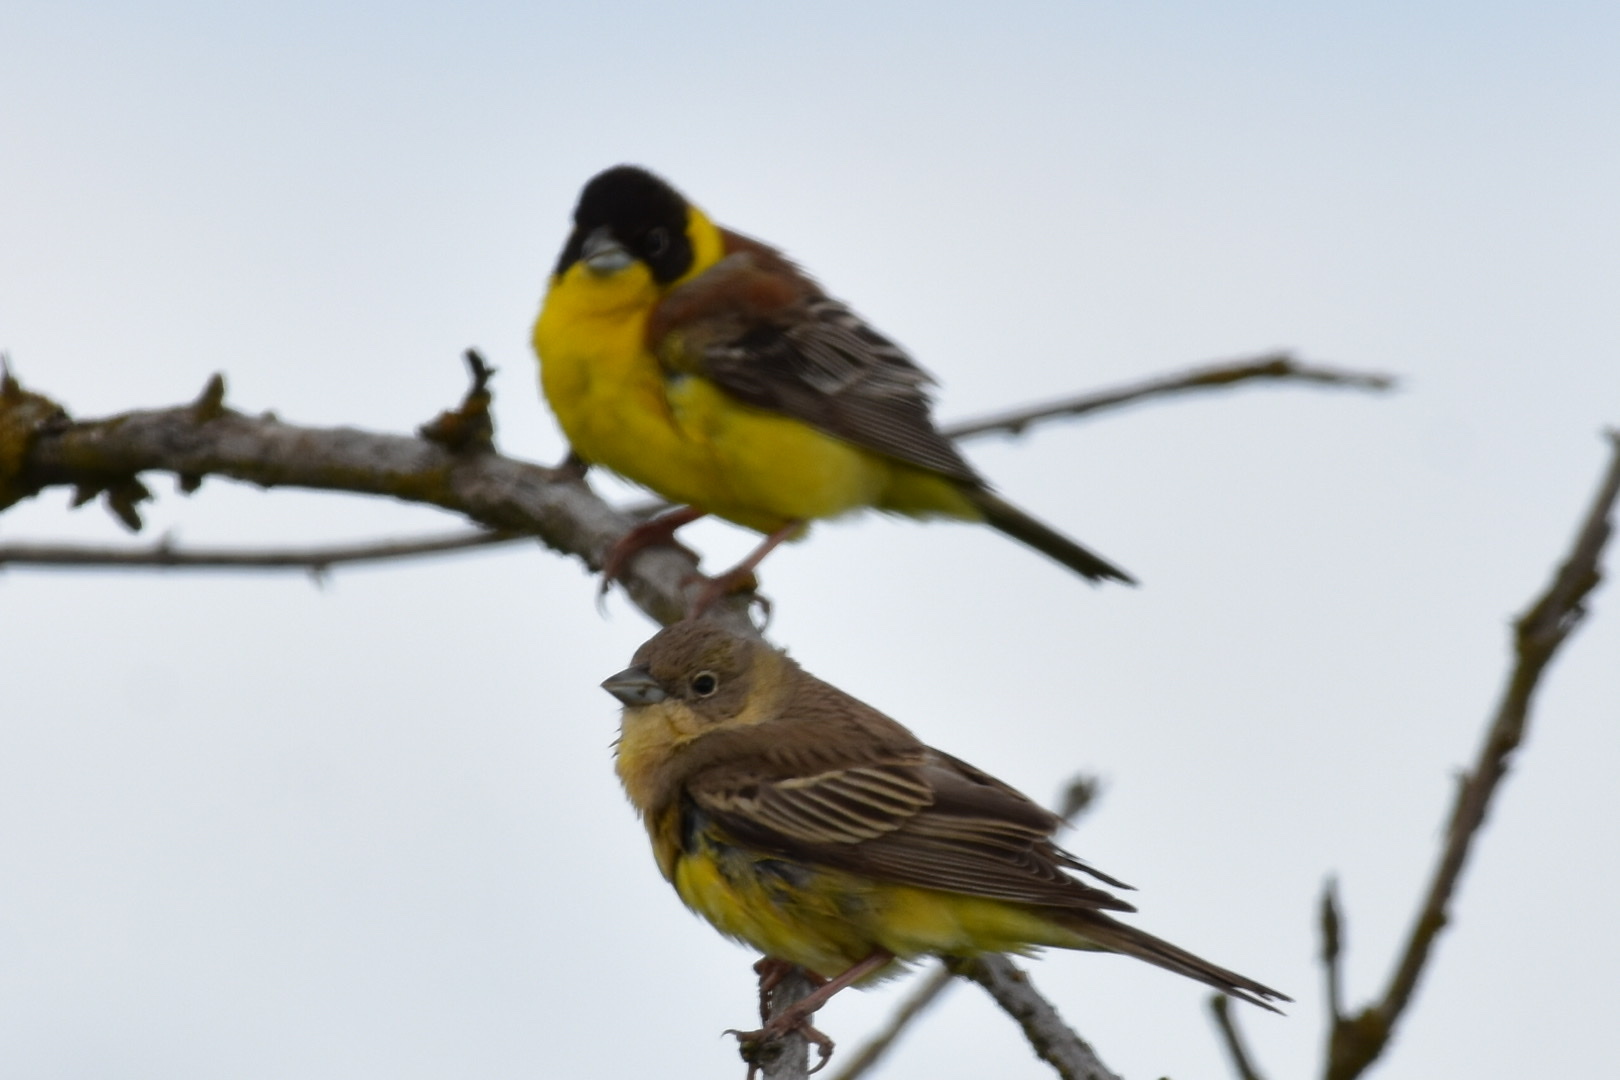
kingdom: Animalia
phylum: Chordata
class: Aves
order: Passeriformes
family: Emberizidae
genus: Emberiza
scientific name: Emberiza melanocephala
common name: Black-headed bunting
